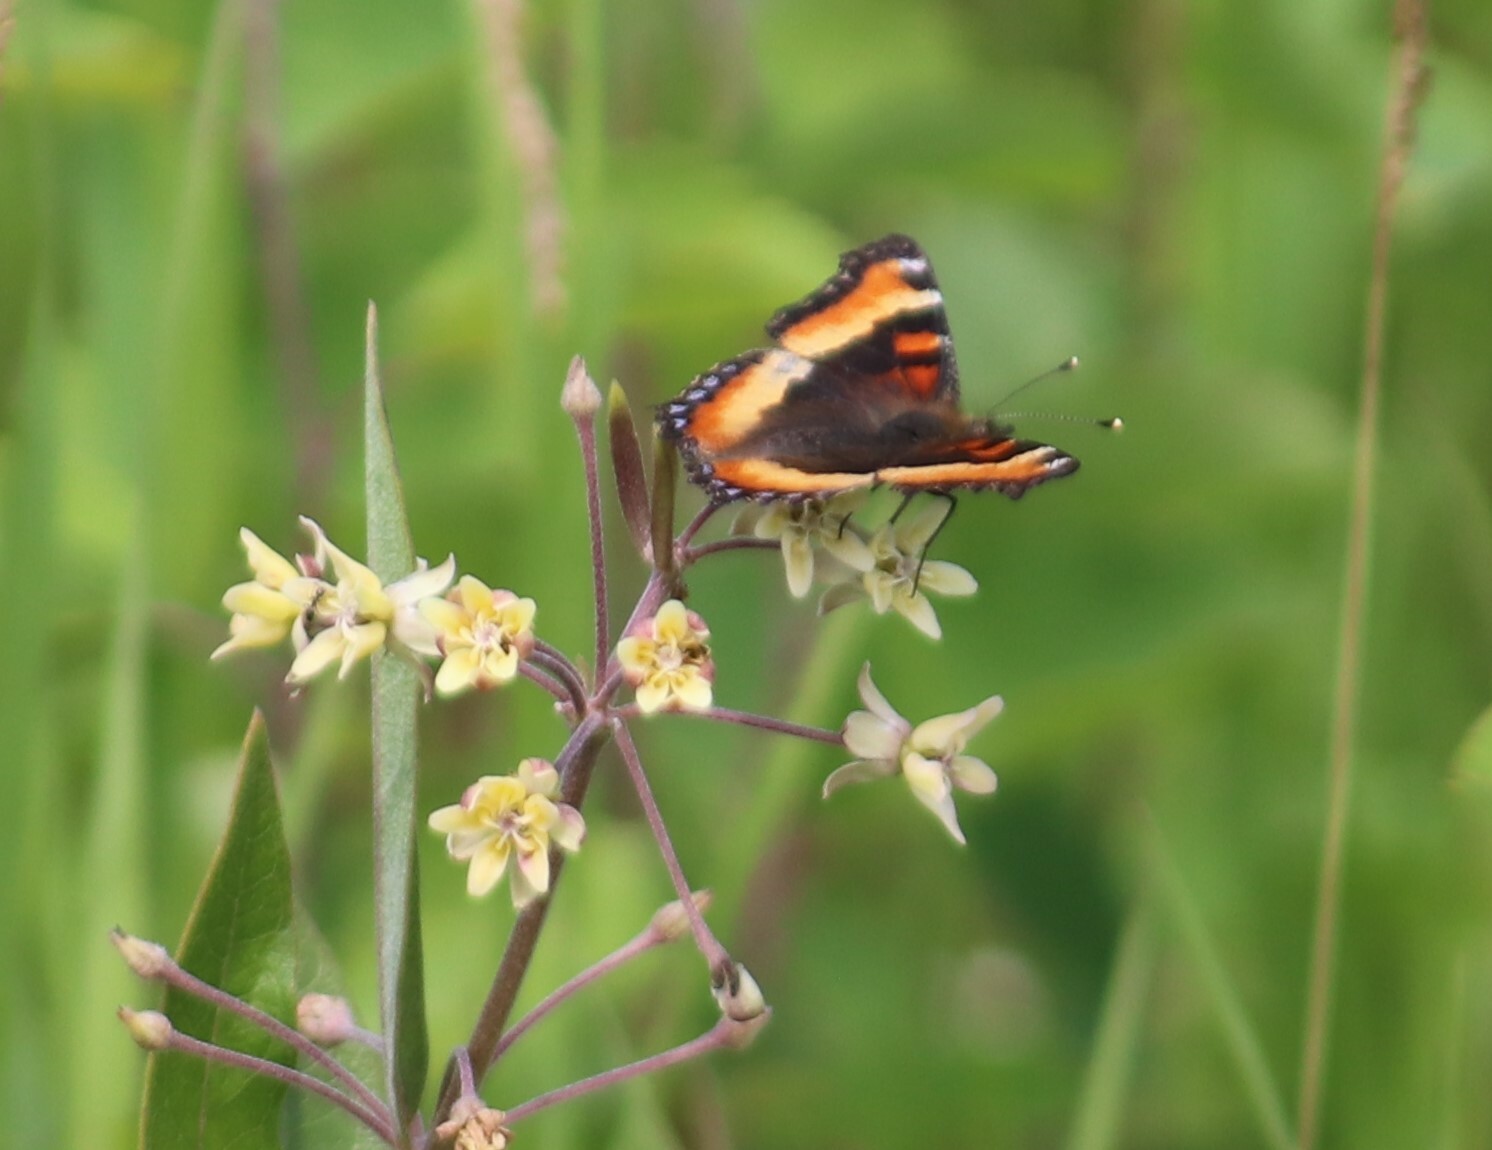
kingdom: Animalia
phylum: Arthropoda
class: Insecta
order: Lepidoptera
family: Nymphalidae
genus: Aglais
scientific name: Aglais milberti
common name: Milbert's tortoiseshell
